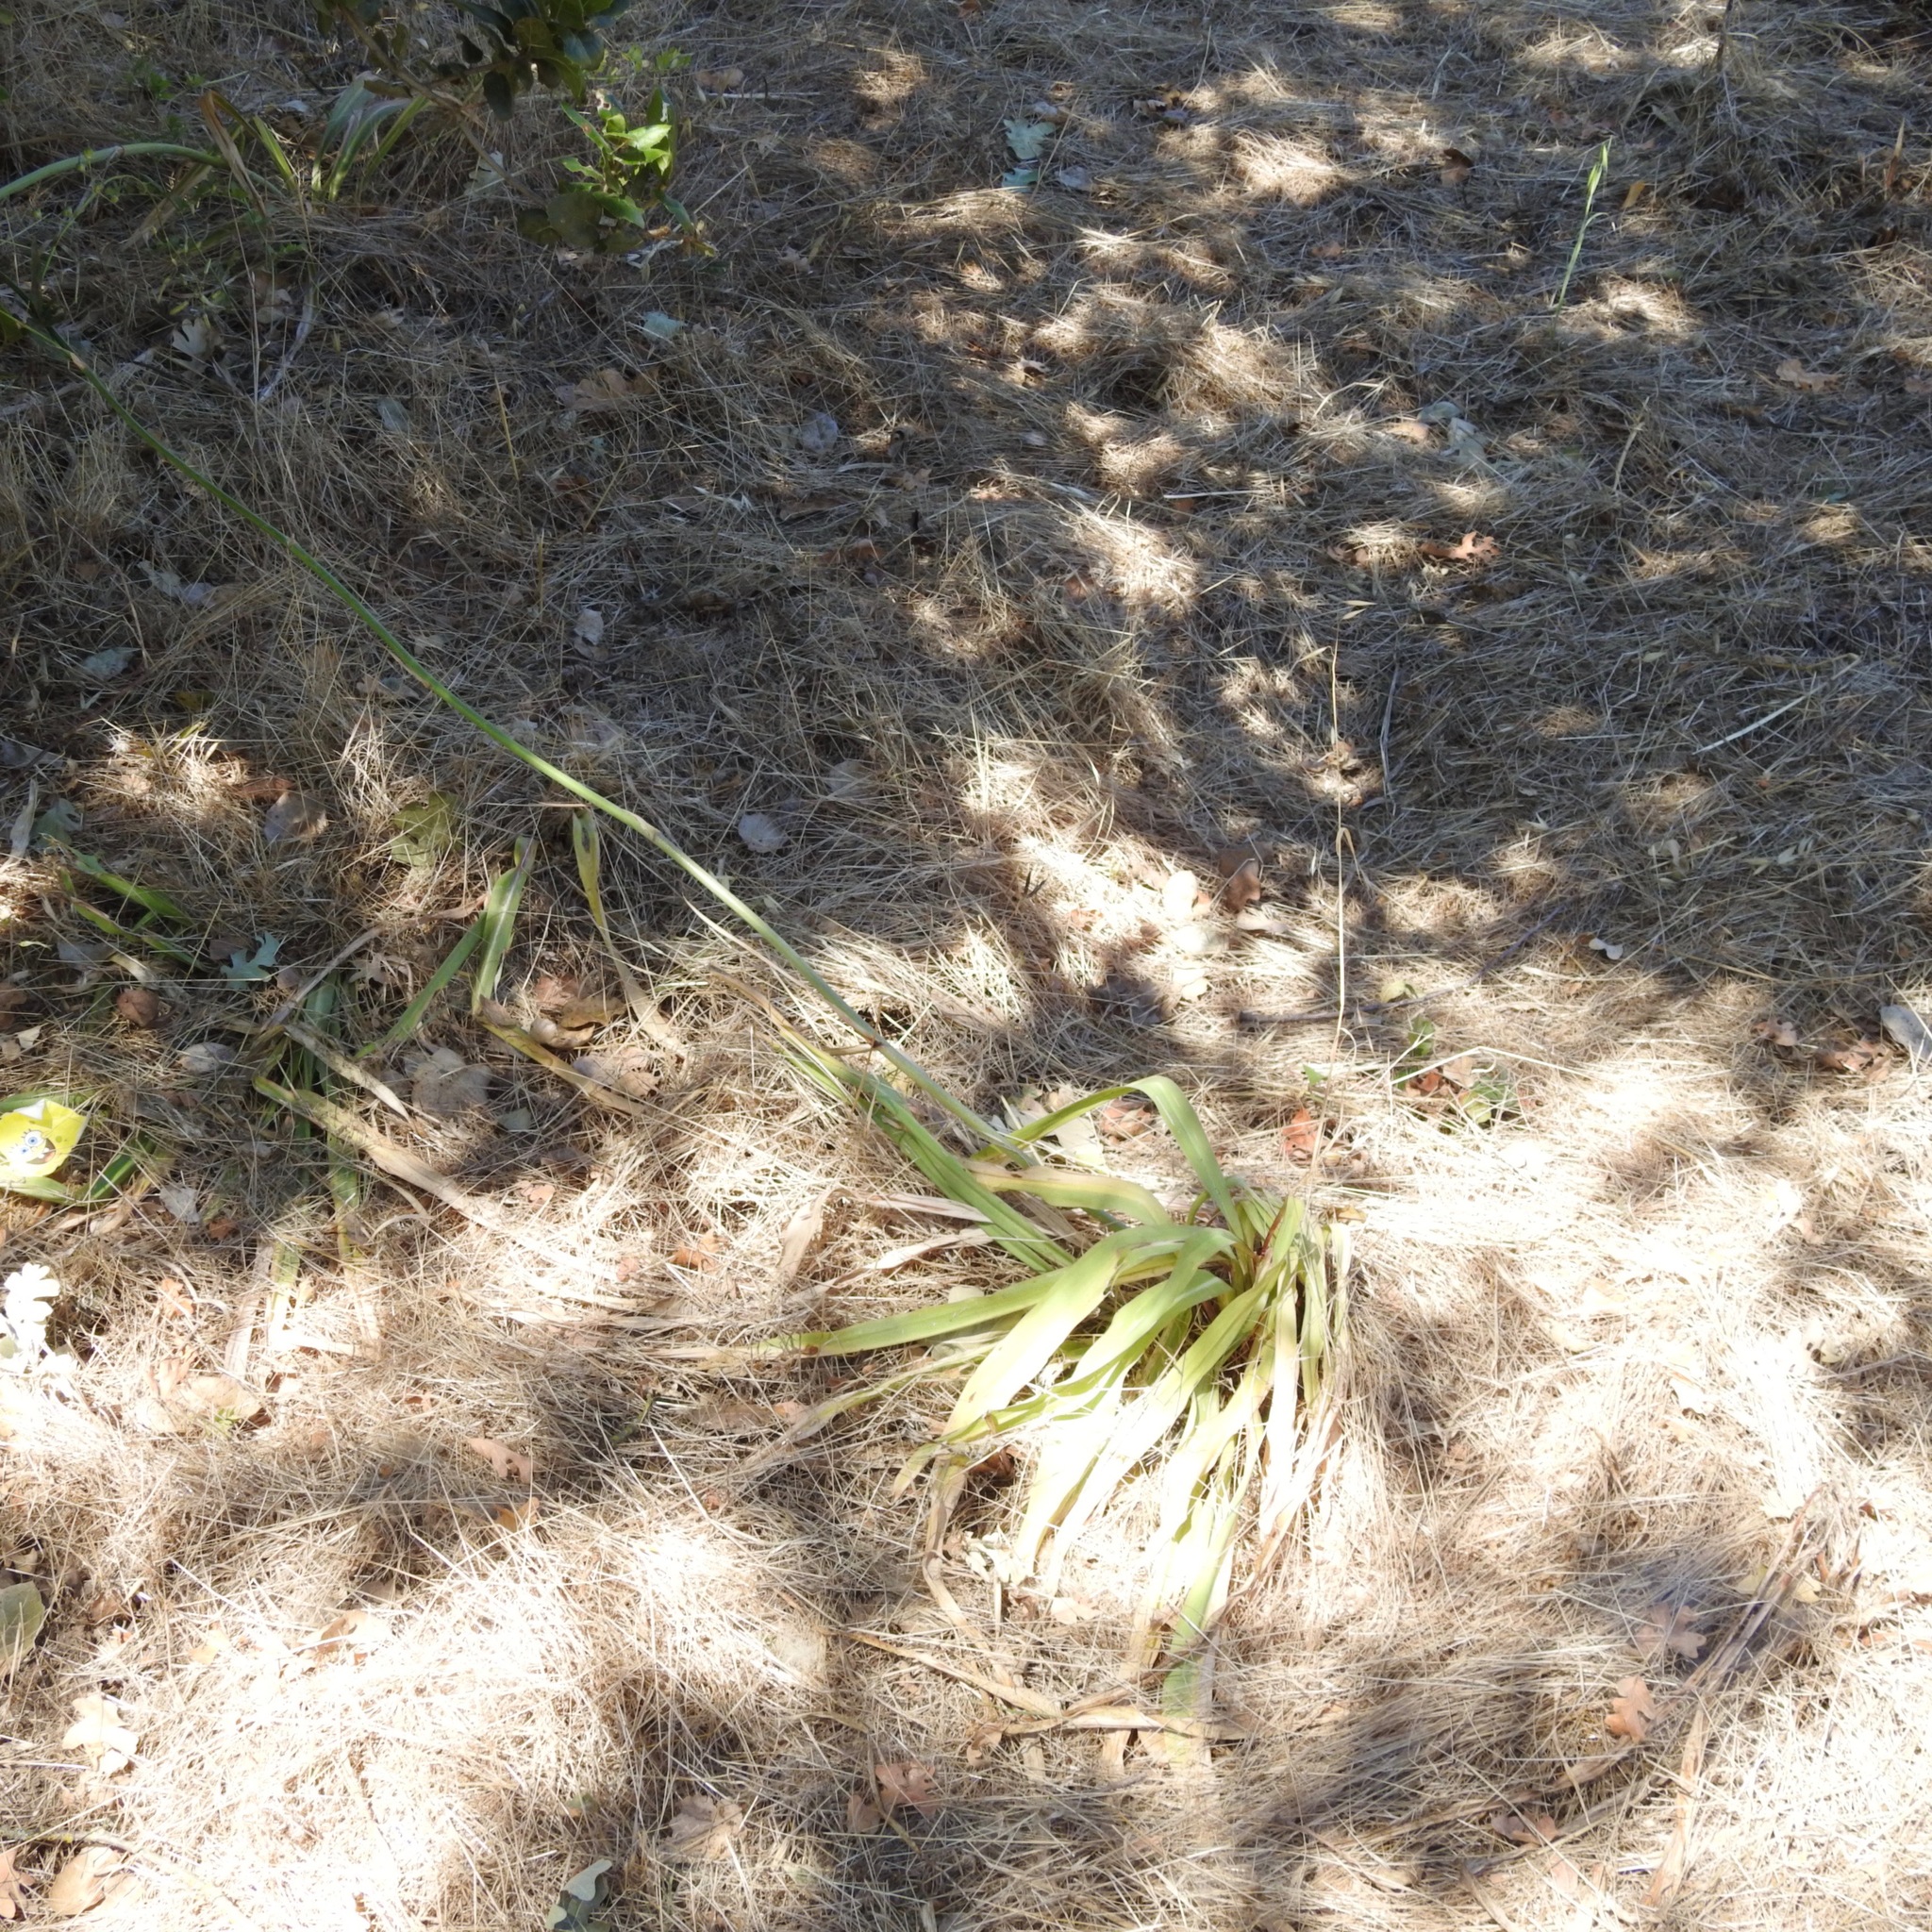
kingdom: Plantae
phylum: Tracheophyta
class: Liliopsida
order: Asparagales
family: Asparagaceae
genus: Chlorogalum
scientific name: Chlorogalum pomeridianum
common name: Amole
